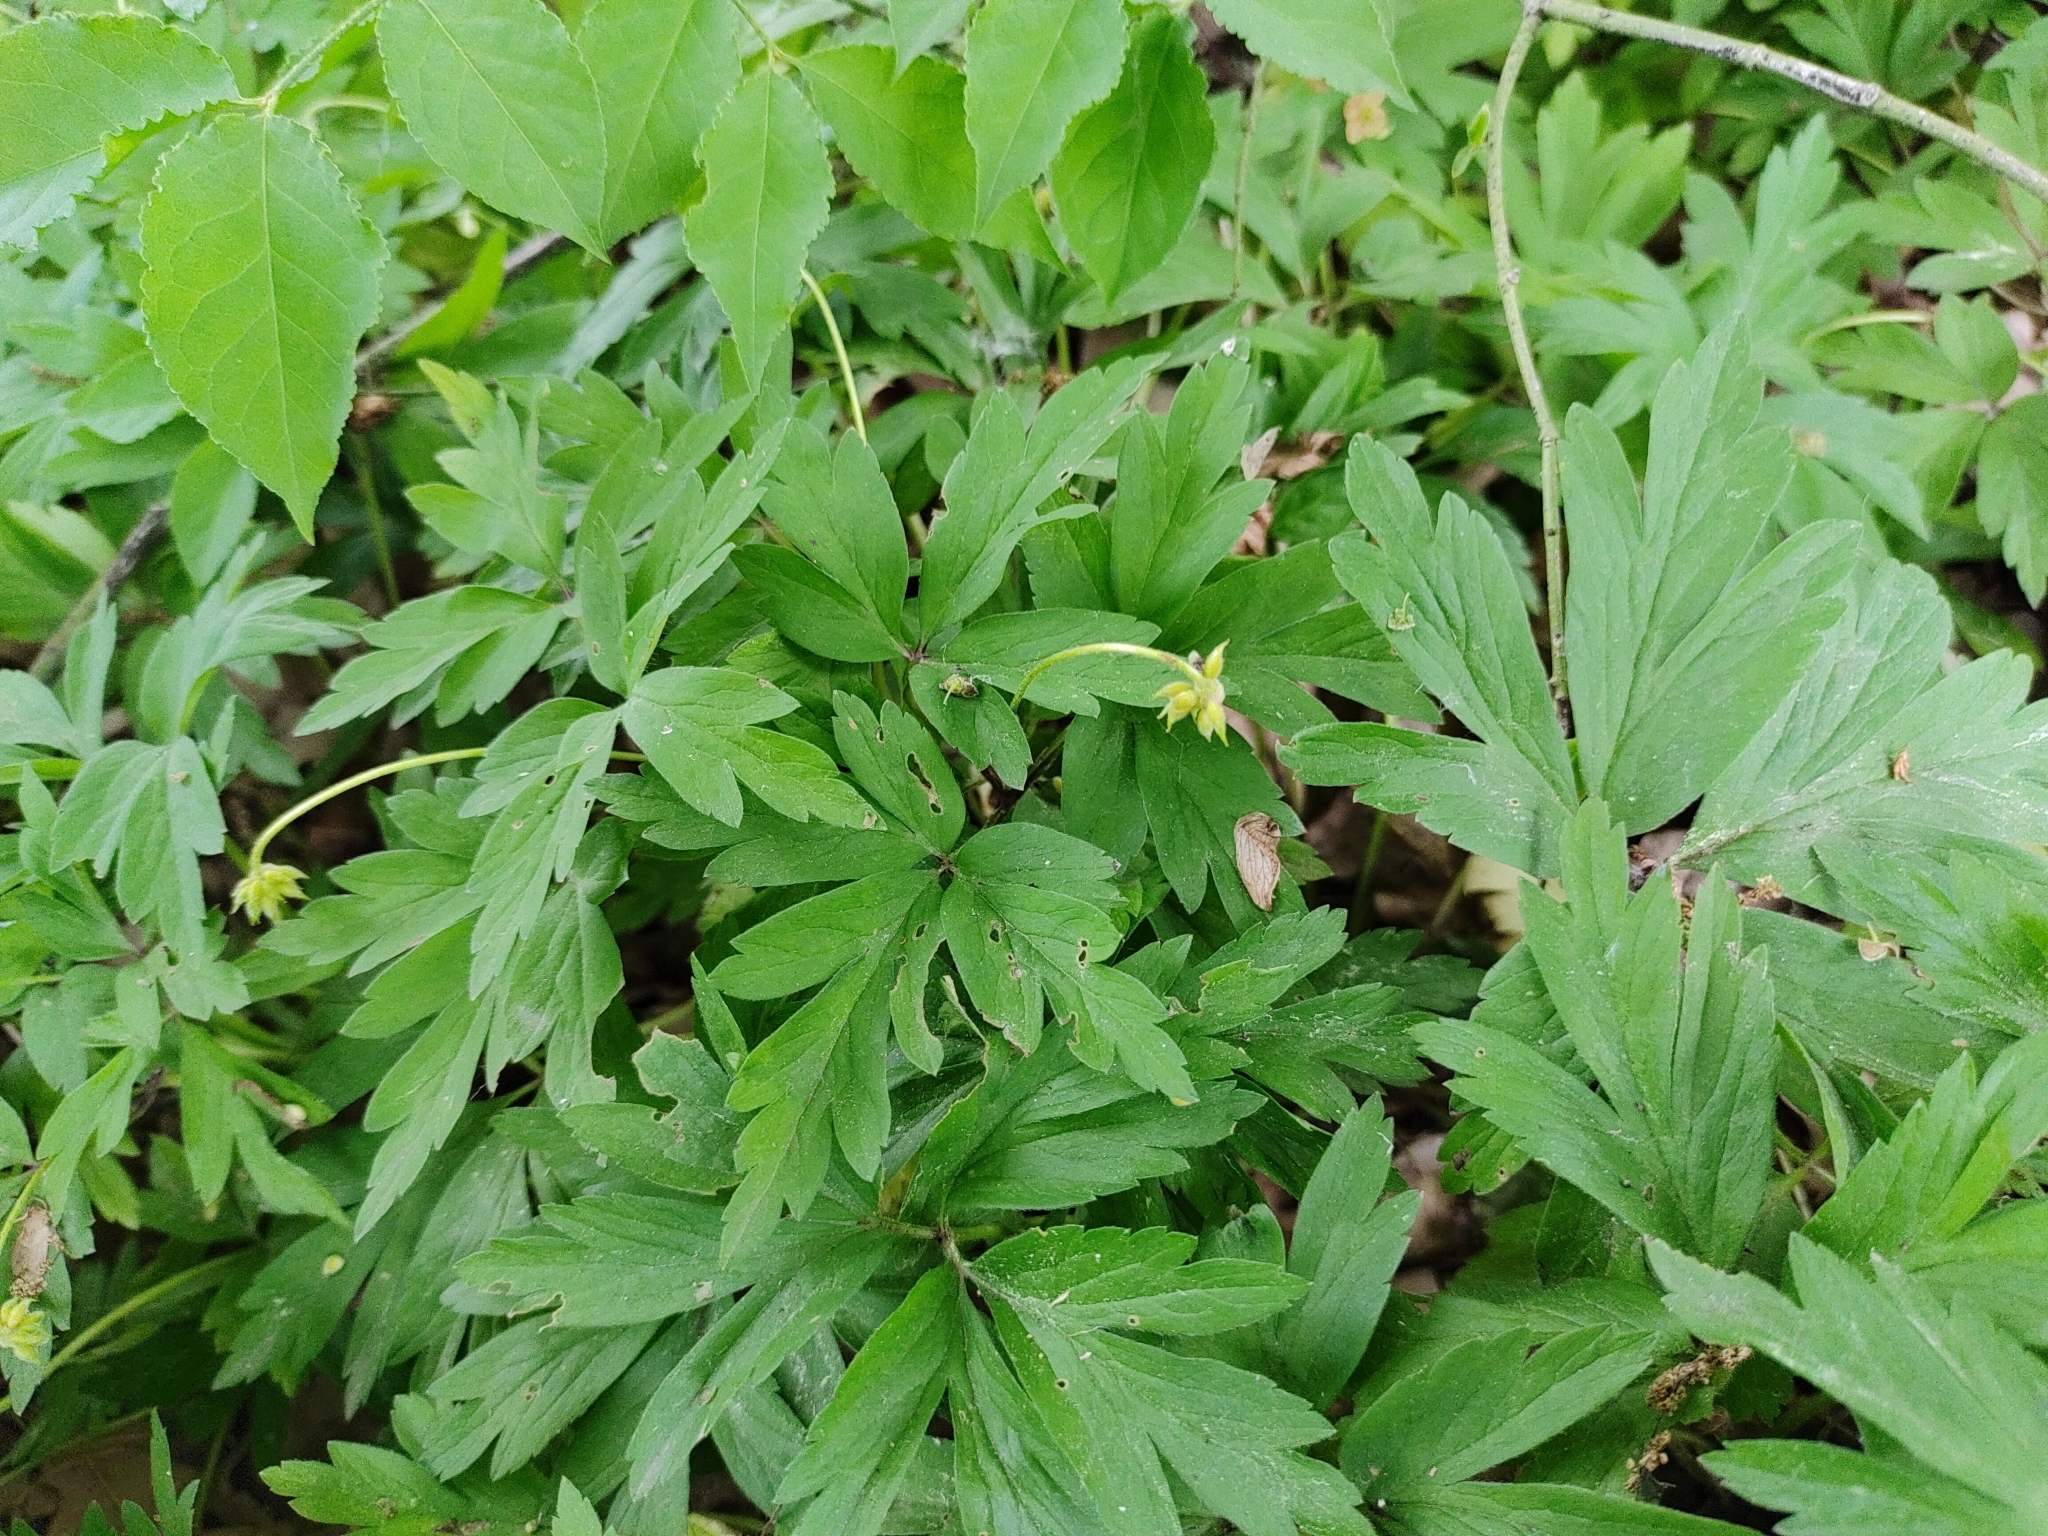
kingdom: Plantae
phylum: Tracheophyta
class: Magnoliopsida
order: Ranunculales
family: Ranunculaceae
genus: Anemone
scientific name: Anemone nemorosa
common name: Wood anemone
